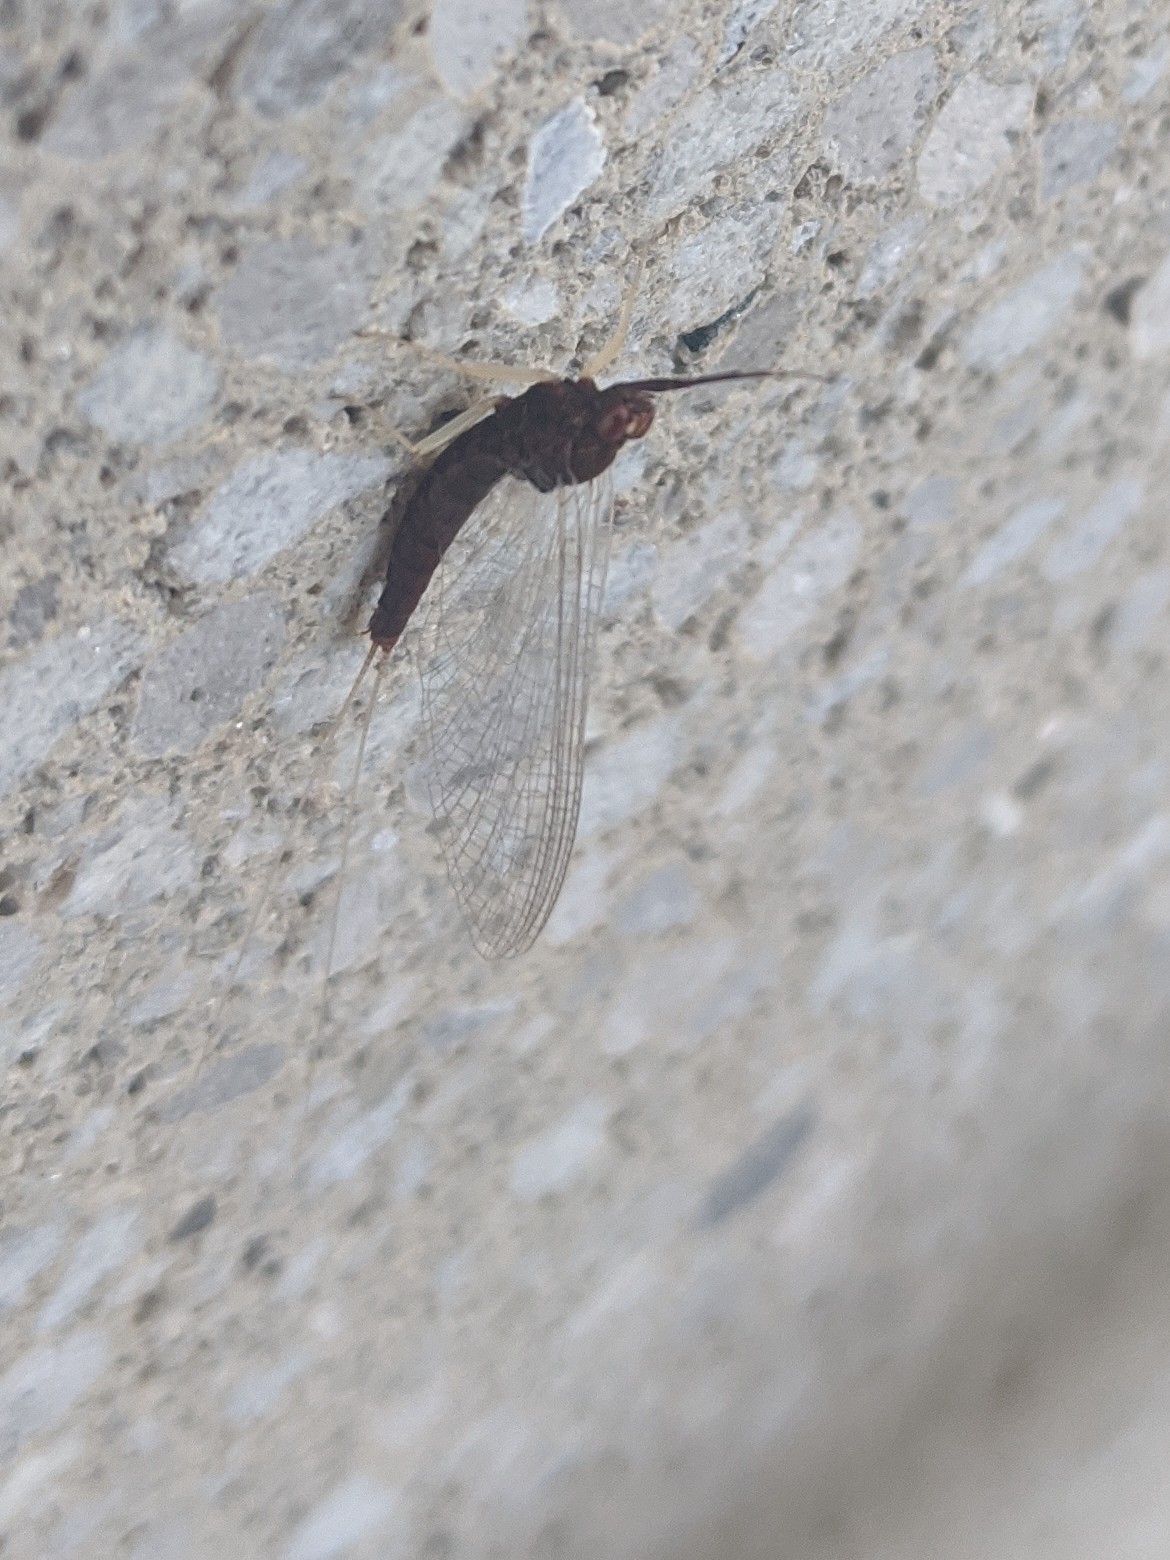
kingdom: Animalia
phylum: Arthropoda
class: Insecta
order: Ephemeroptera
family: Isonychiidae
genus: Isonychia
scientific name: Isonychia bicolor
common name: Mahogany dun
